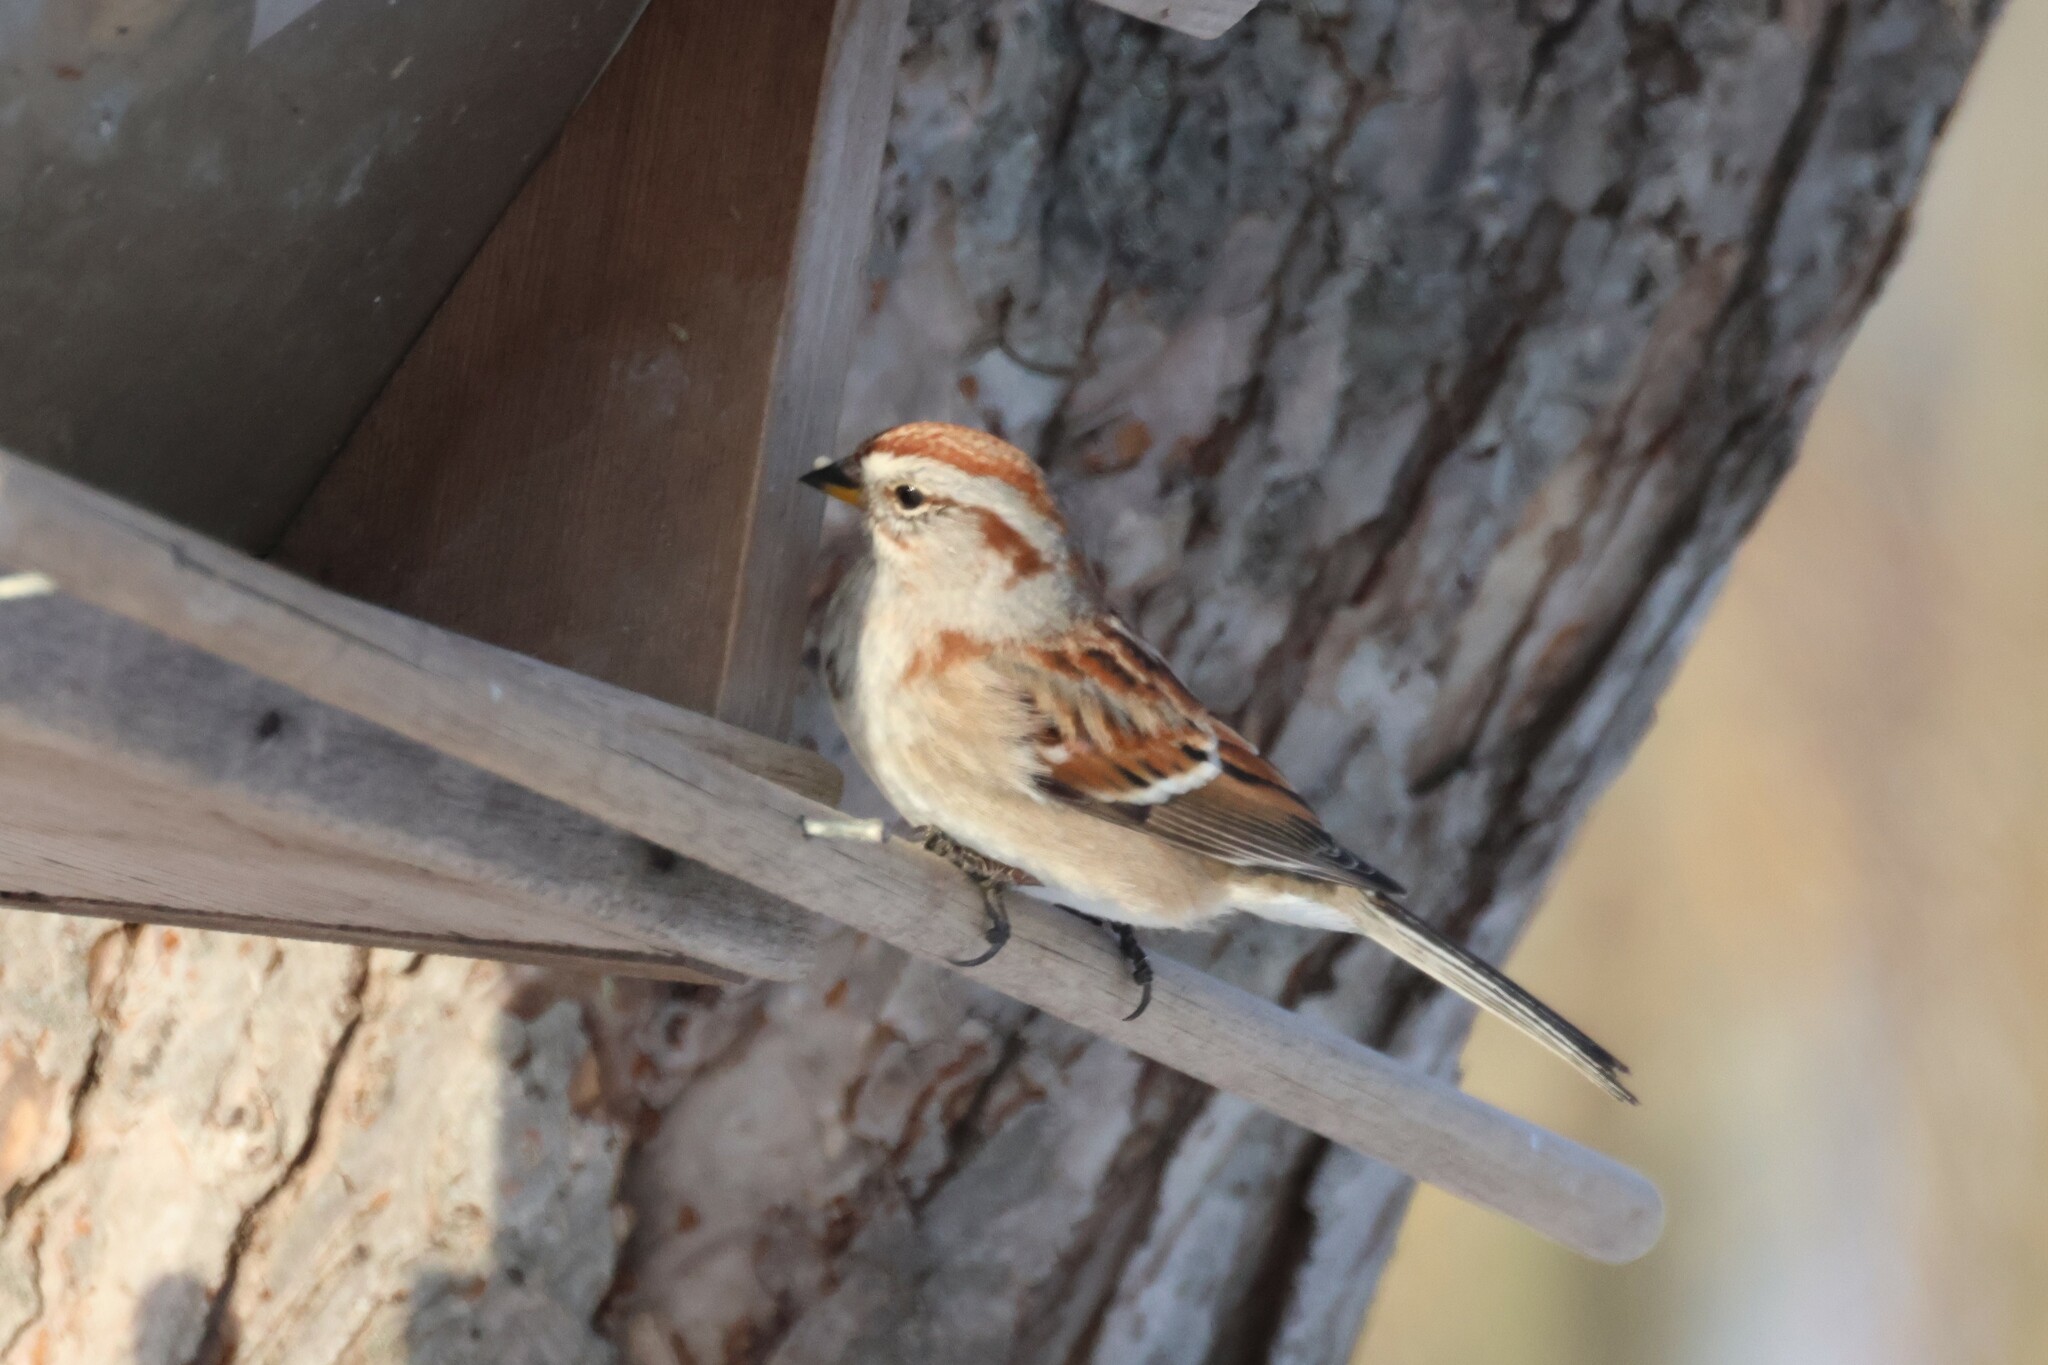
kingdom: Animalia
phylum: Chordata
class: Aves
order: Passeriformes
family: Passerellidae
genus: Spizelloides
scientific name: Spizelloides arborea
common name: American tree sparrow
